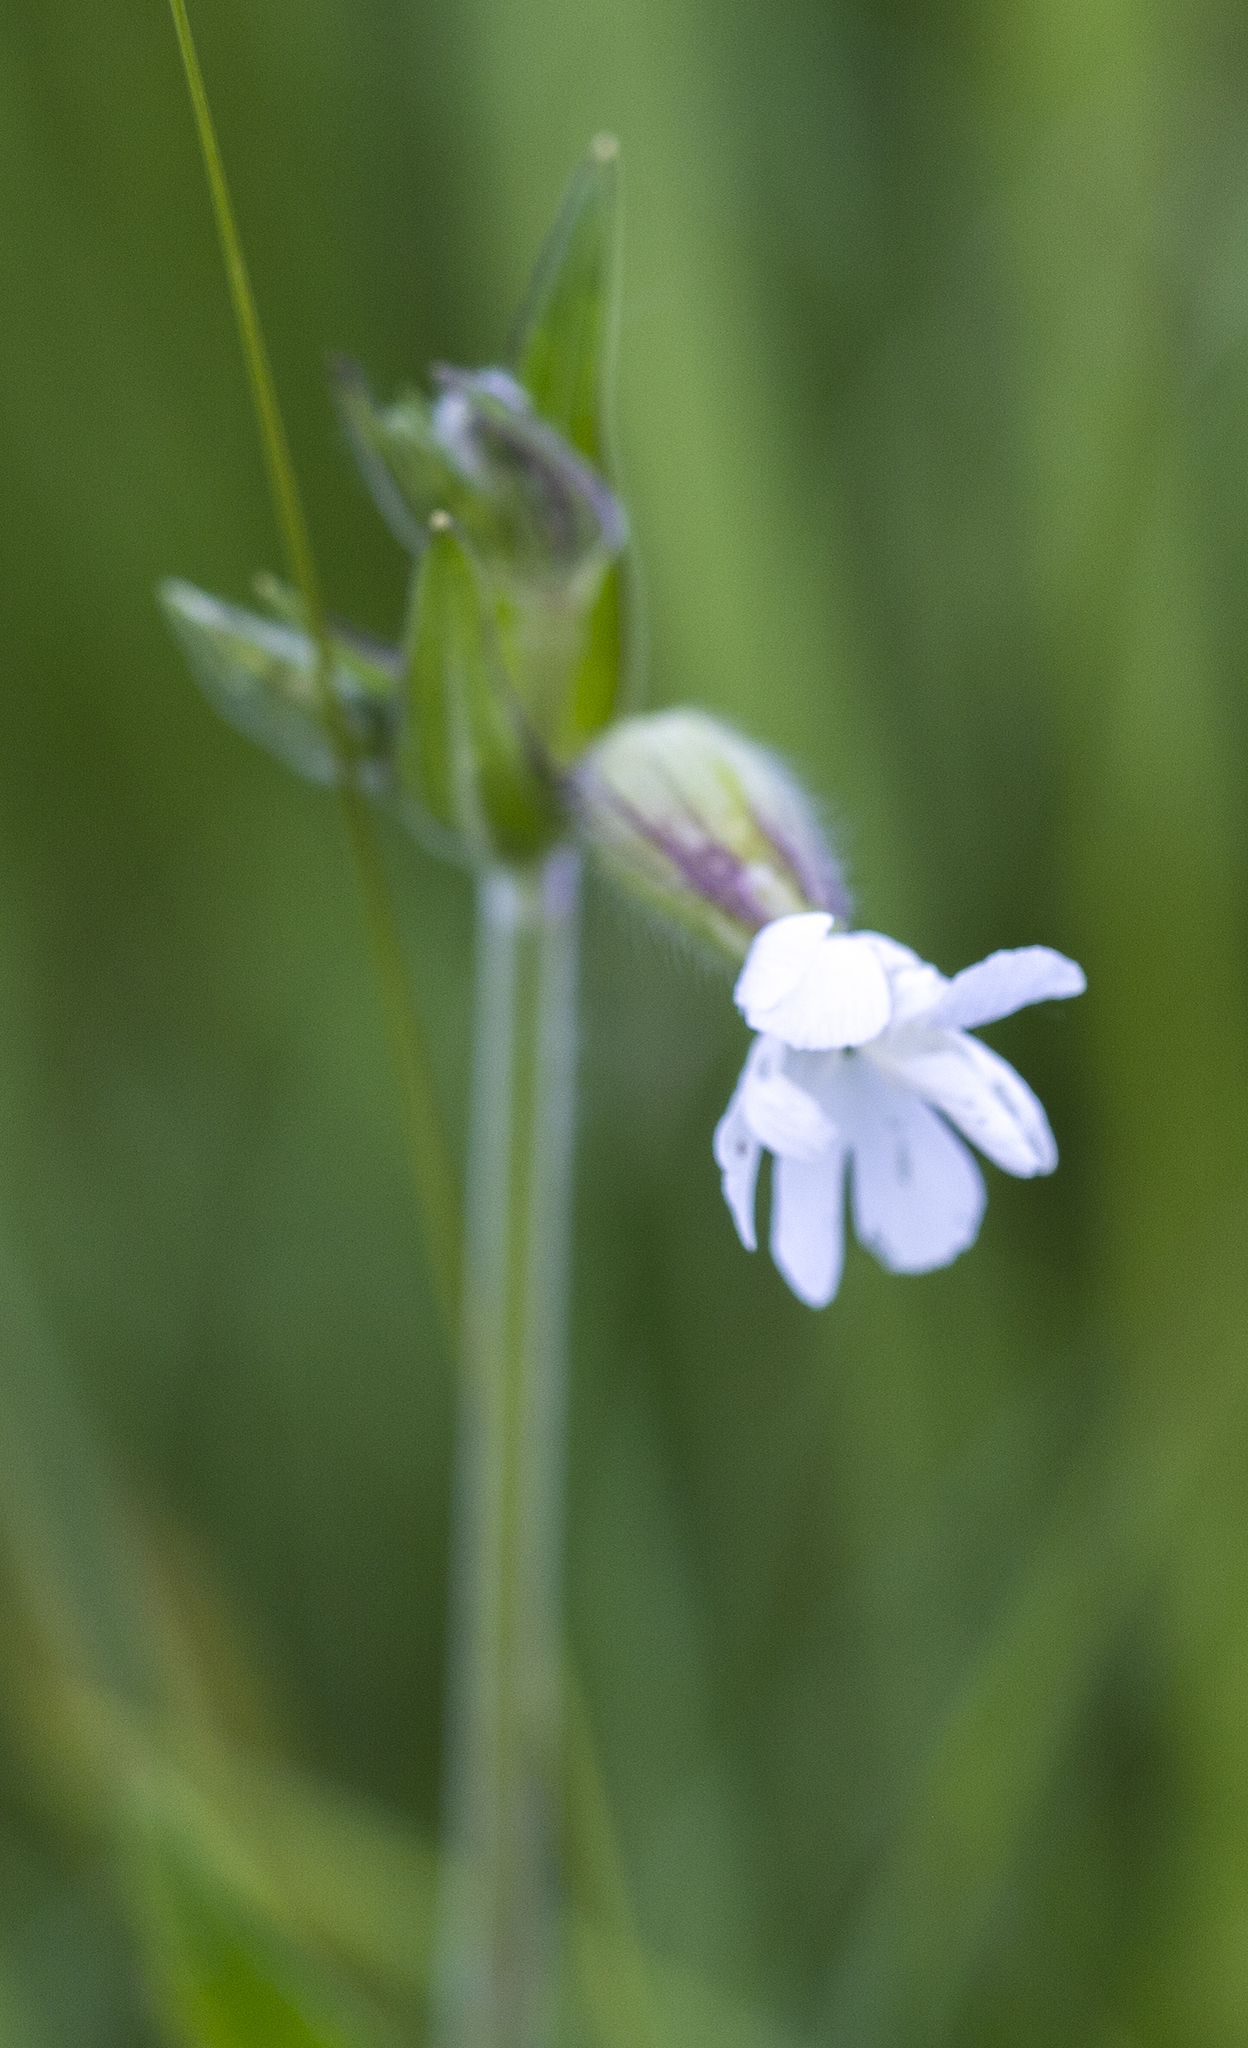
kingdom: Plantae
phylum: Tracheophyta
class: Magnoliopsida
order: Caryophyllales
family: Caryophyllaceae
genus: Silene
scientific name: Silene latifolia
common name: White campion
